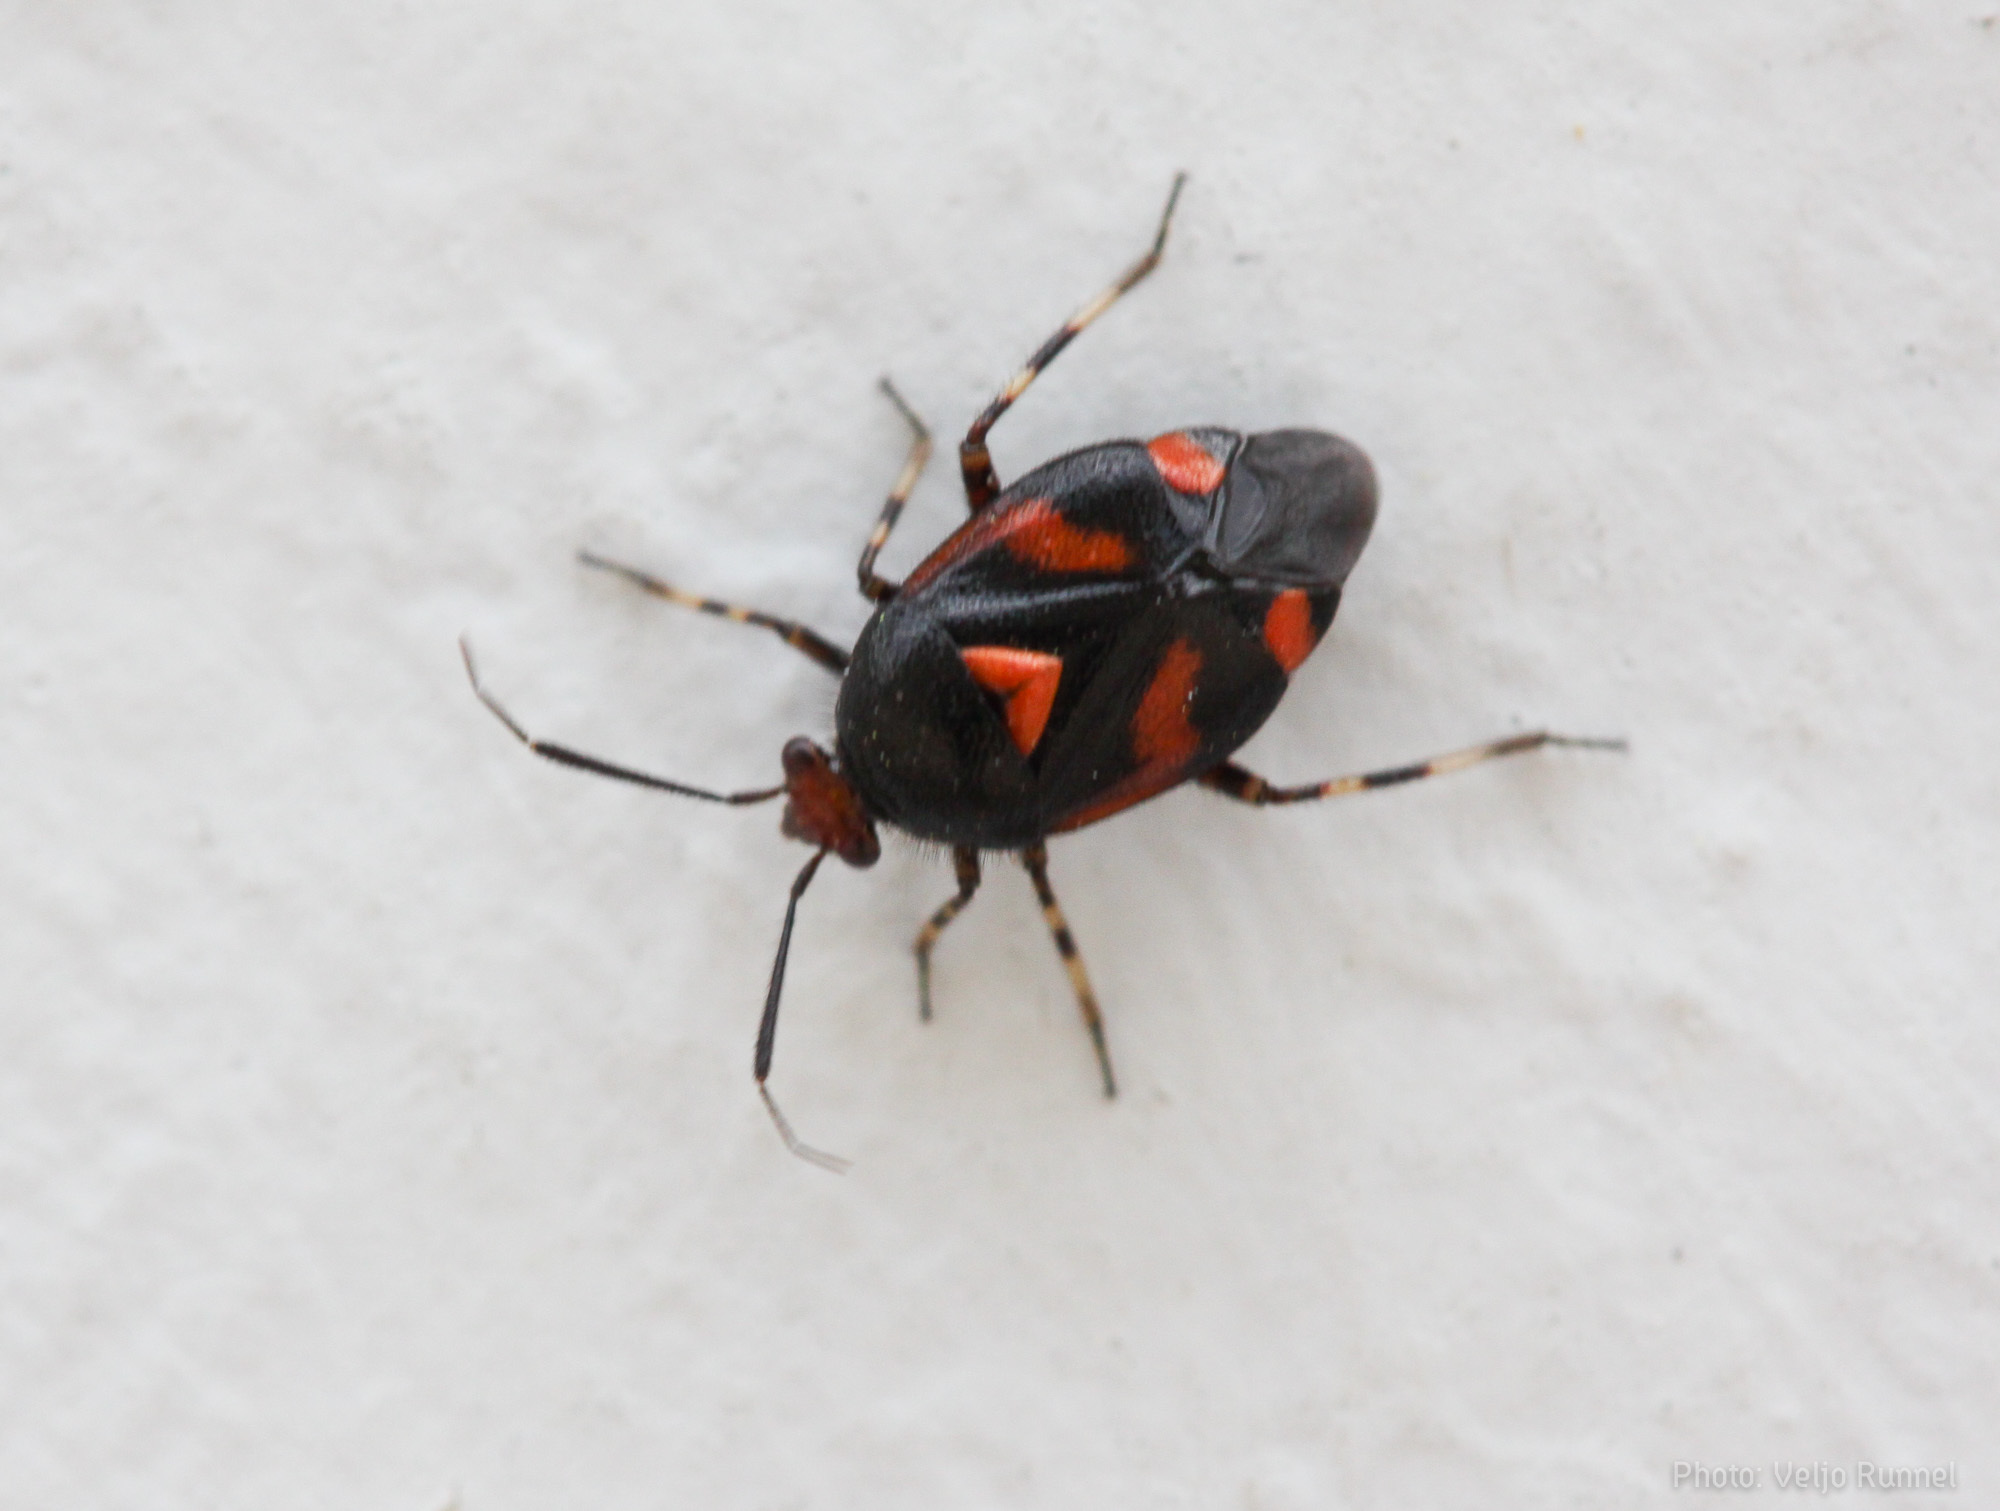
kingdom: Animalia
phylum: Arthropoda
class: Insecta
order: Hemiptera
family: Miridae
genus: Deraeocoris
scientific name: Deraeocoris schach
